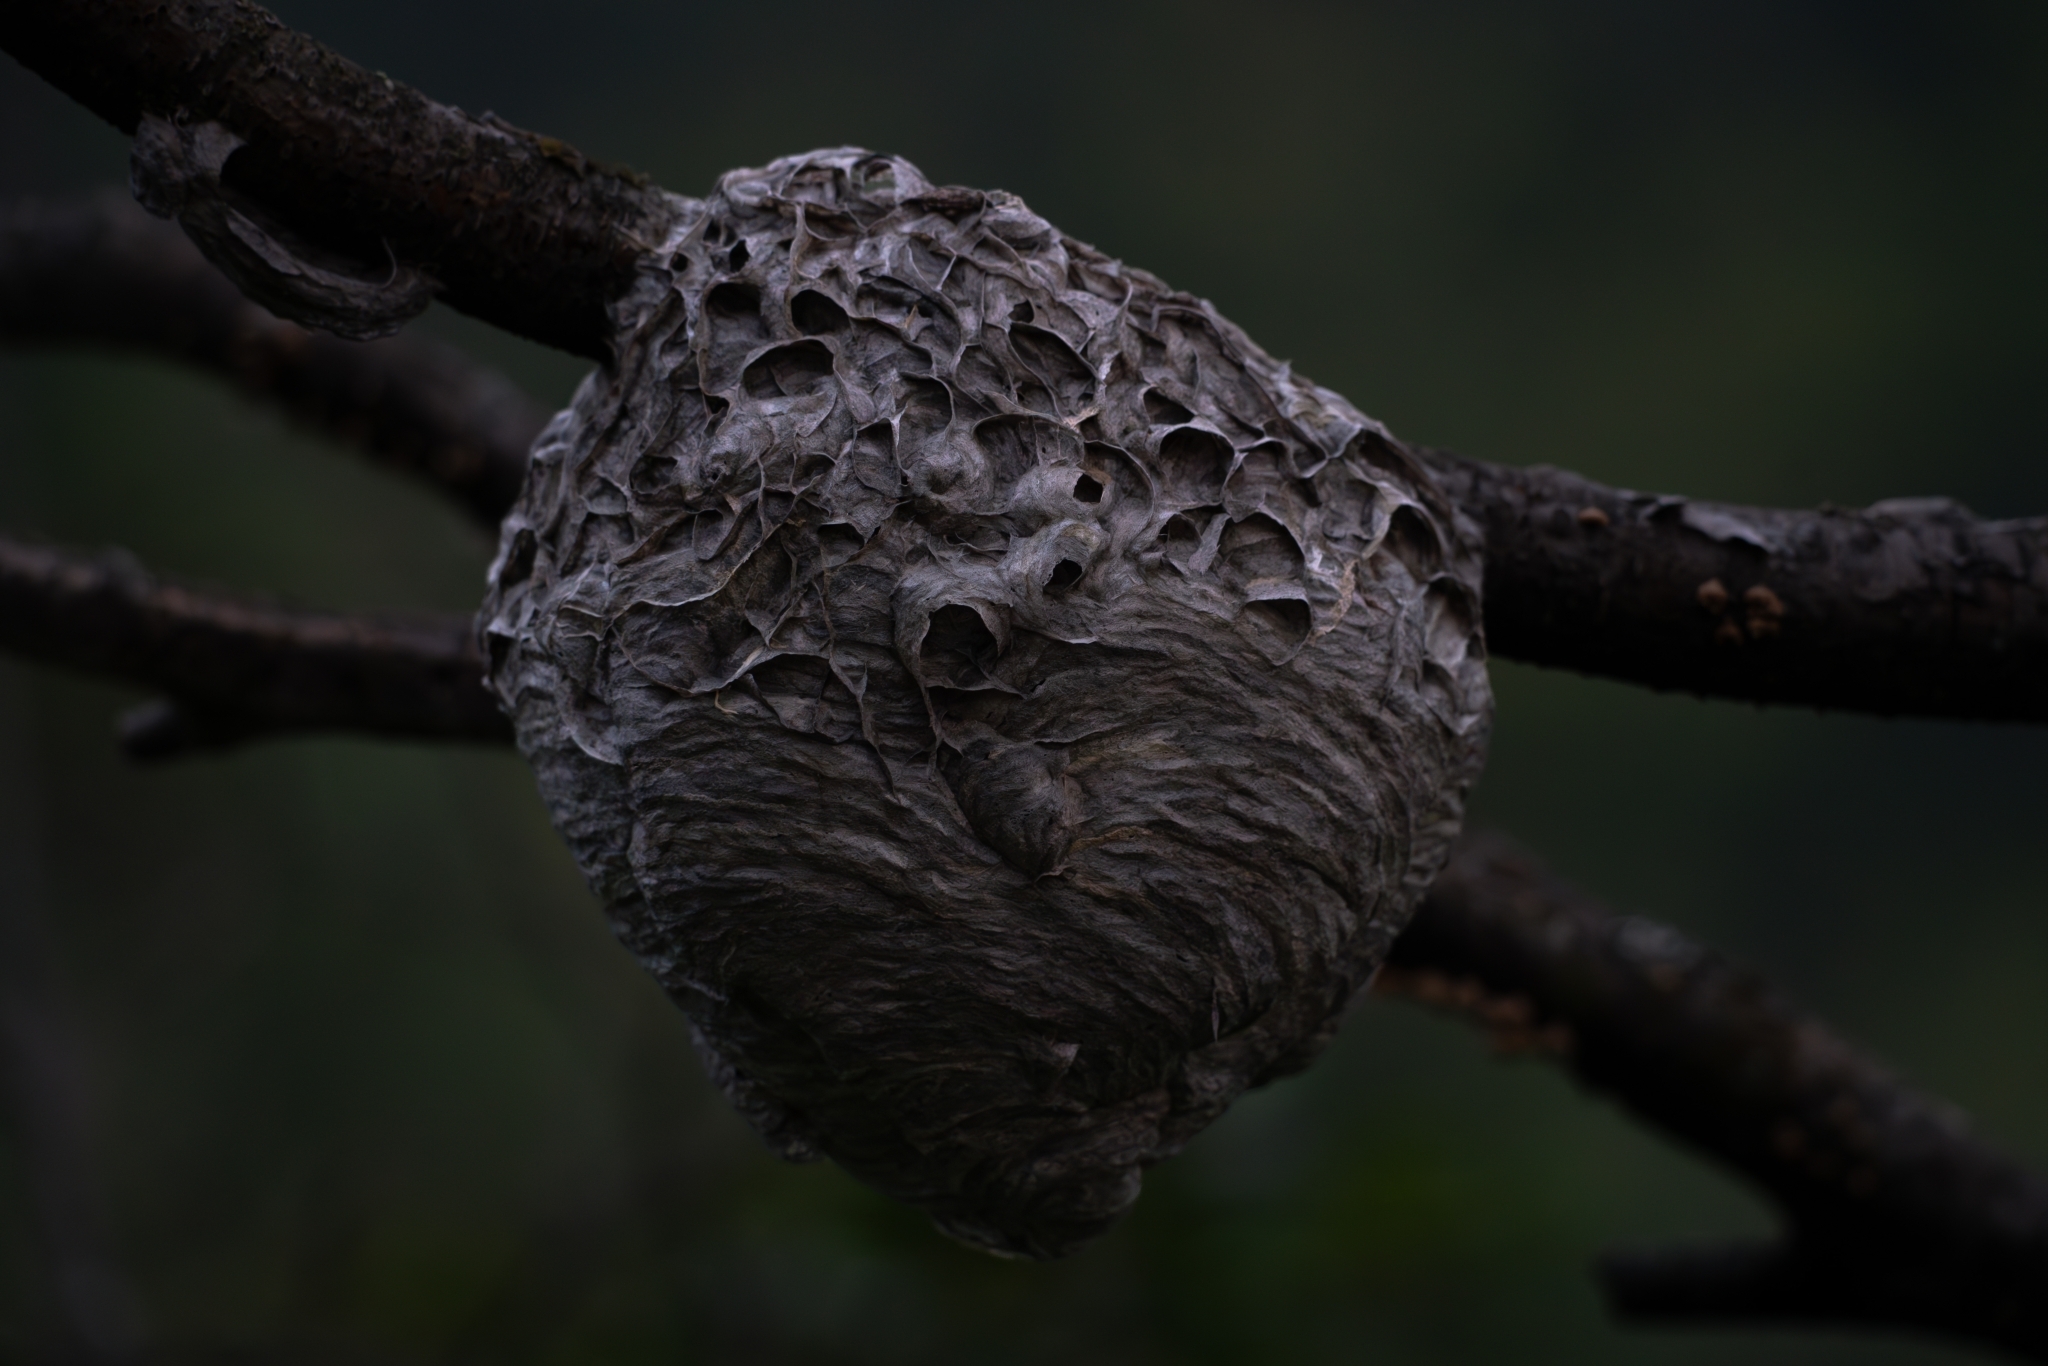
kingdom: Animalia
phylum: Arthropoda
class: Insecta
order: Hymenoptera
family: Vespidae
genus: Dolichovespula
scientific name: Dolichovespula maculata
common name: Bald-faced hornet
